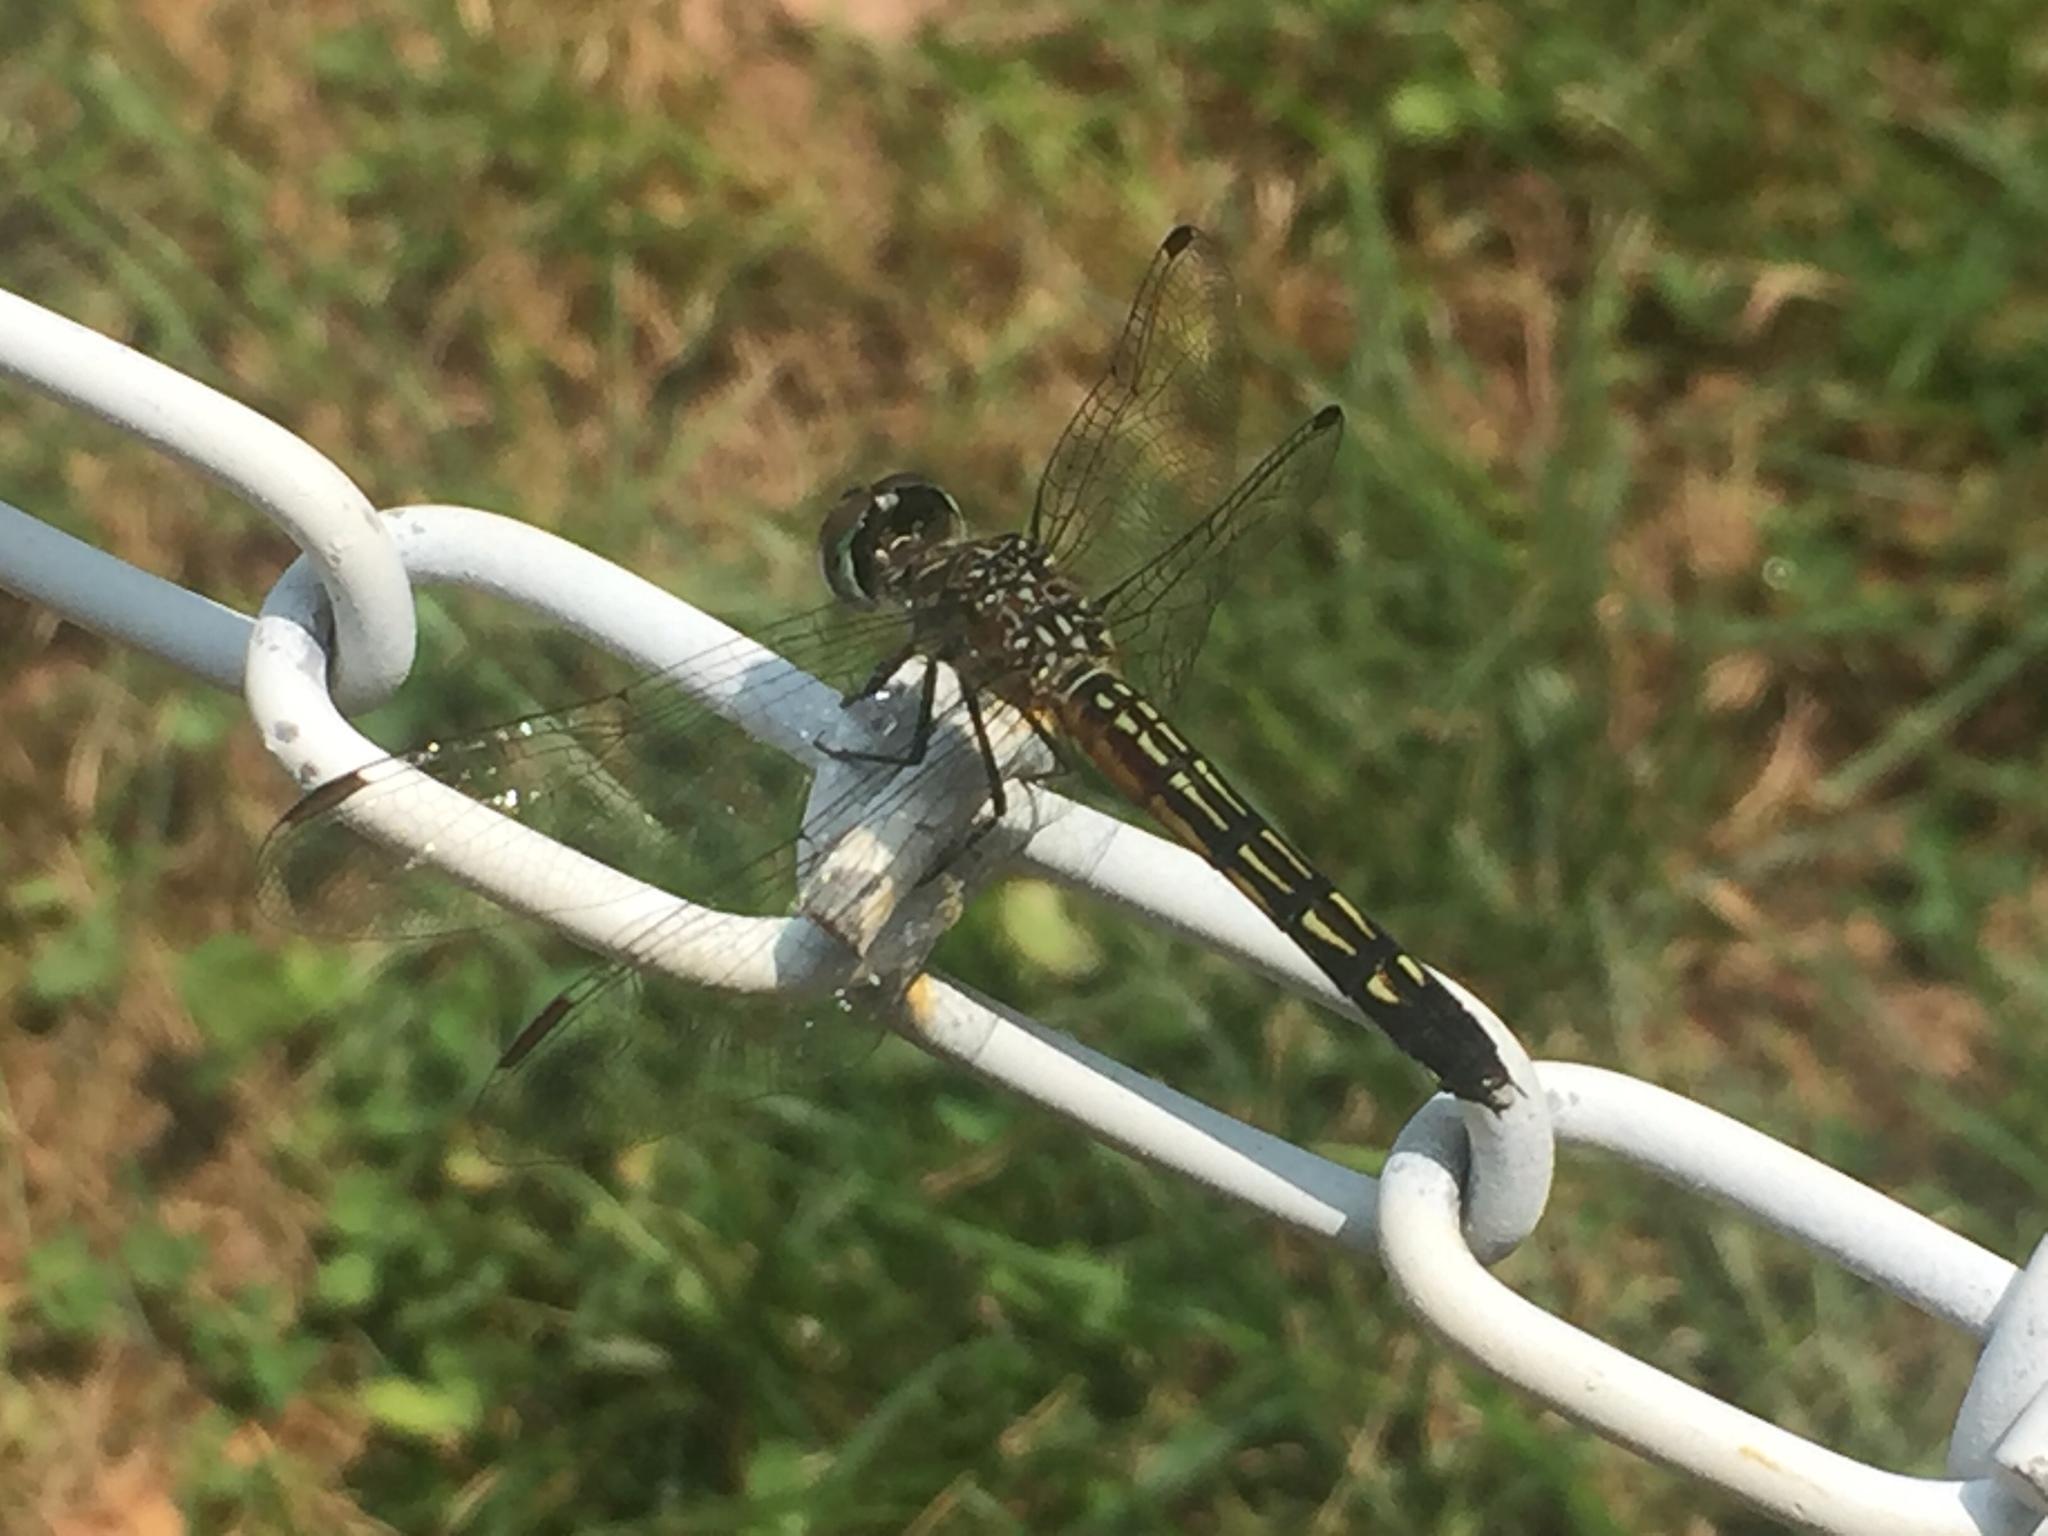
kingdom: Animalia
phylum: Arthropoda
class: Insecta
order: Odonata
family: Libellulidae
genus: Pachydiplax
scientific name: Pachydiplax longipennis
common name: Blue dasher
